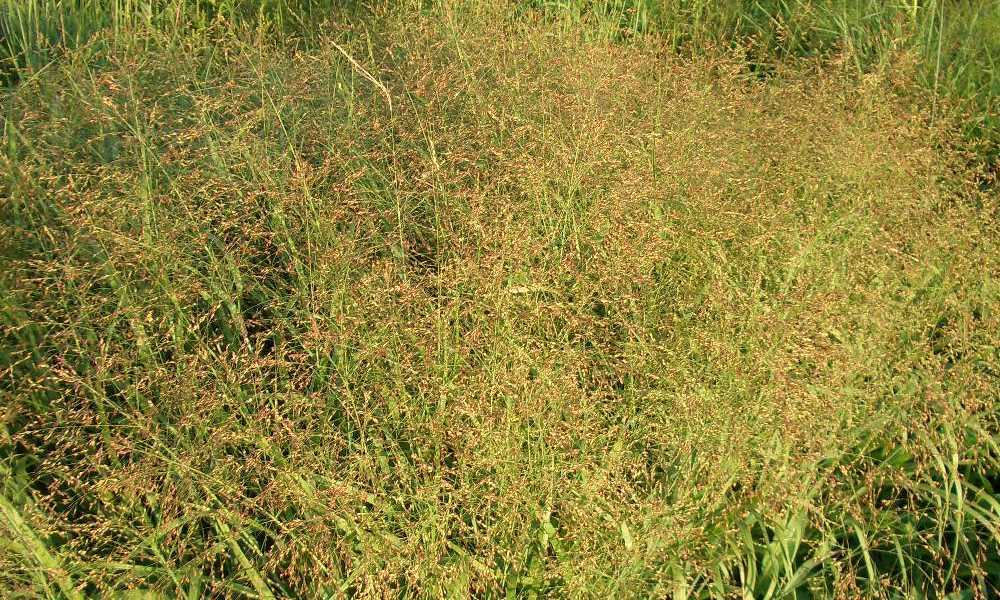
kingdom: Plantae
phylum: Tracheophyta
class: Liliopsida
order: Poales
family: Poaceae
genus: Panicum
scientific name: Panicum virgatum
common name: Switchgrass
